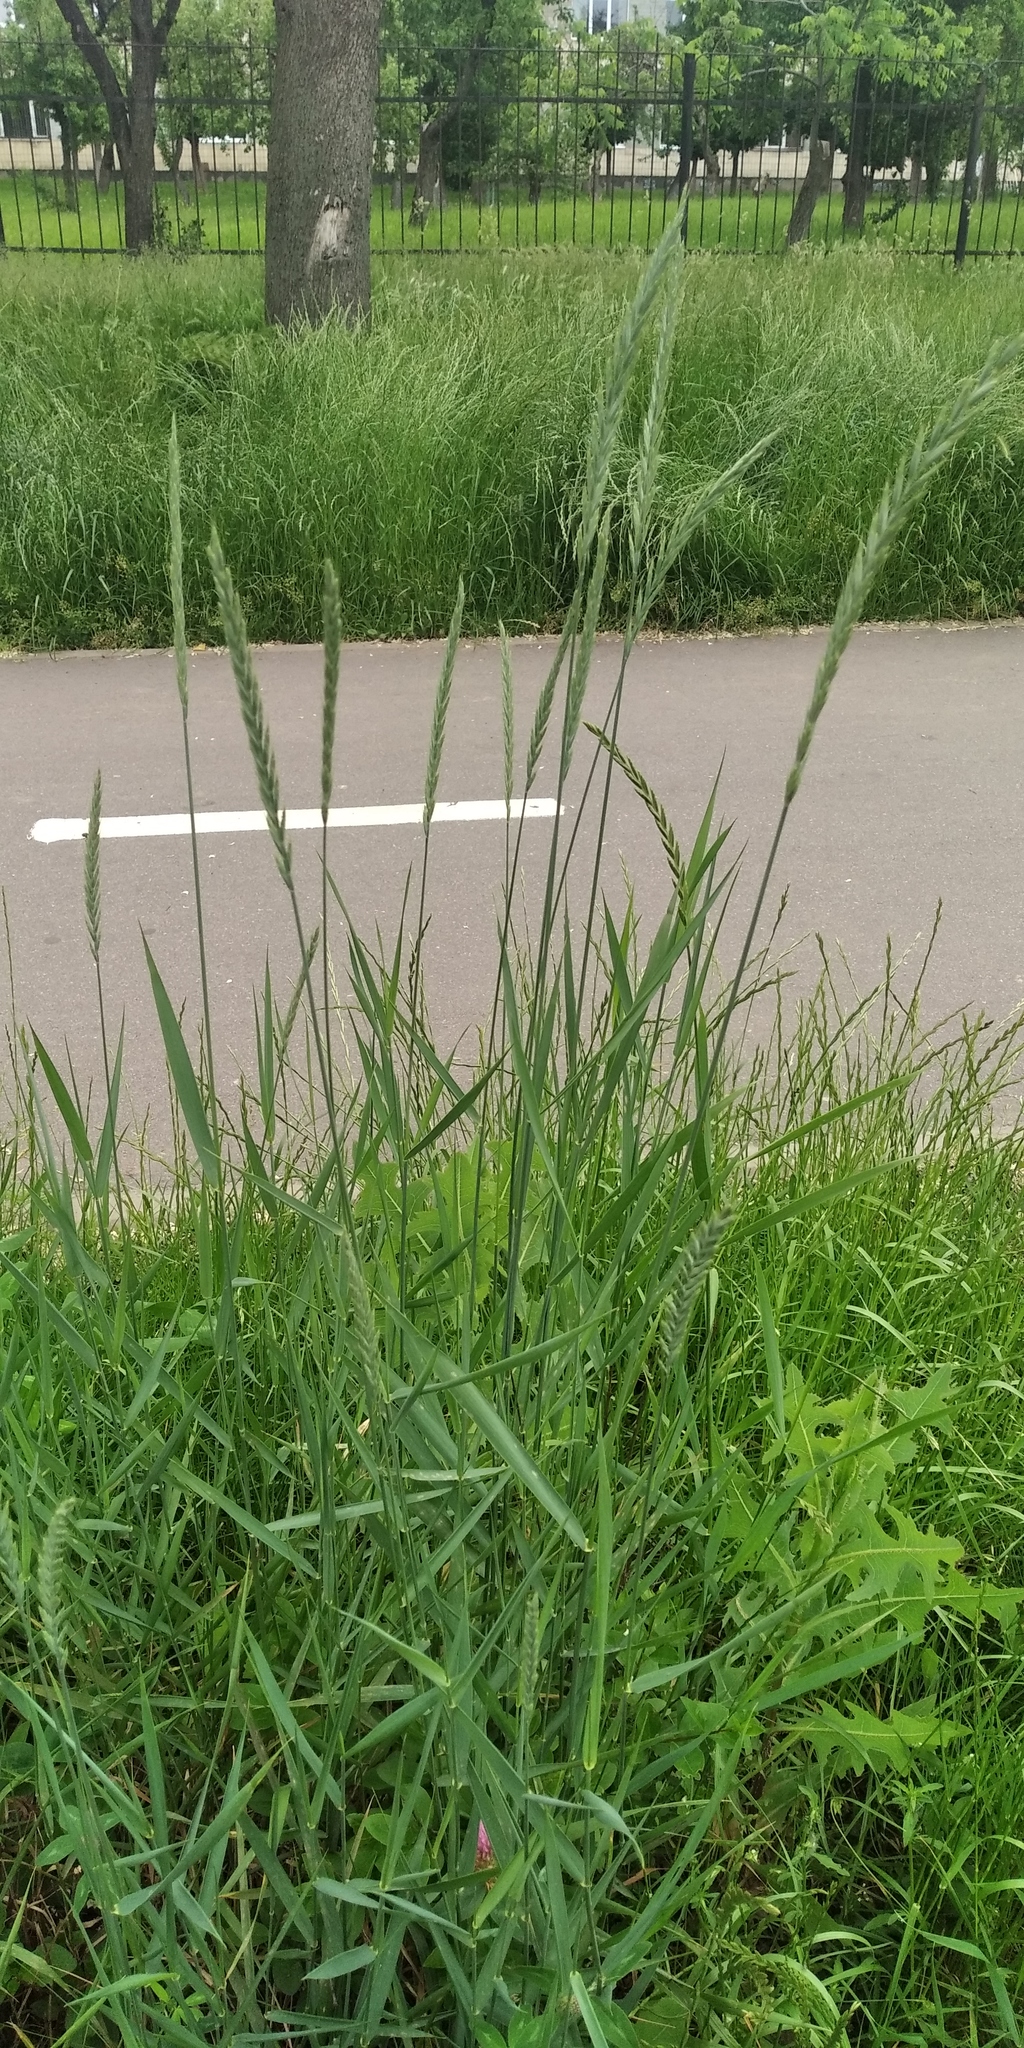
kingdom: Plantae
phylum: Tracheophyta
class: Liliopsida
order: Poales
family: Poaceae
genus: Elymus
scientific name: Elymus repens
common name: Quackgrass
